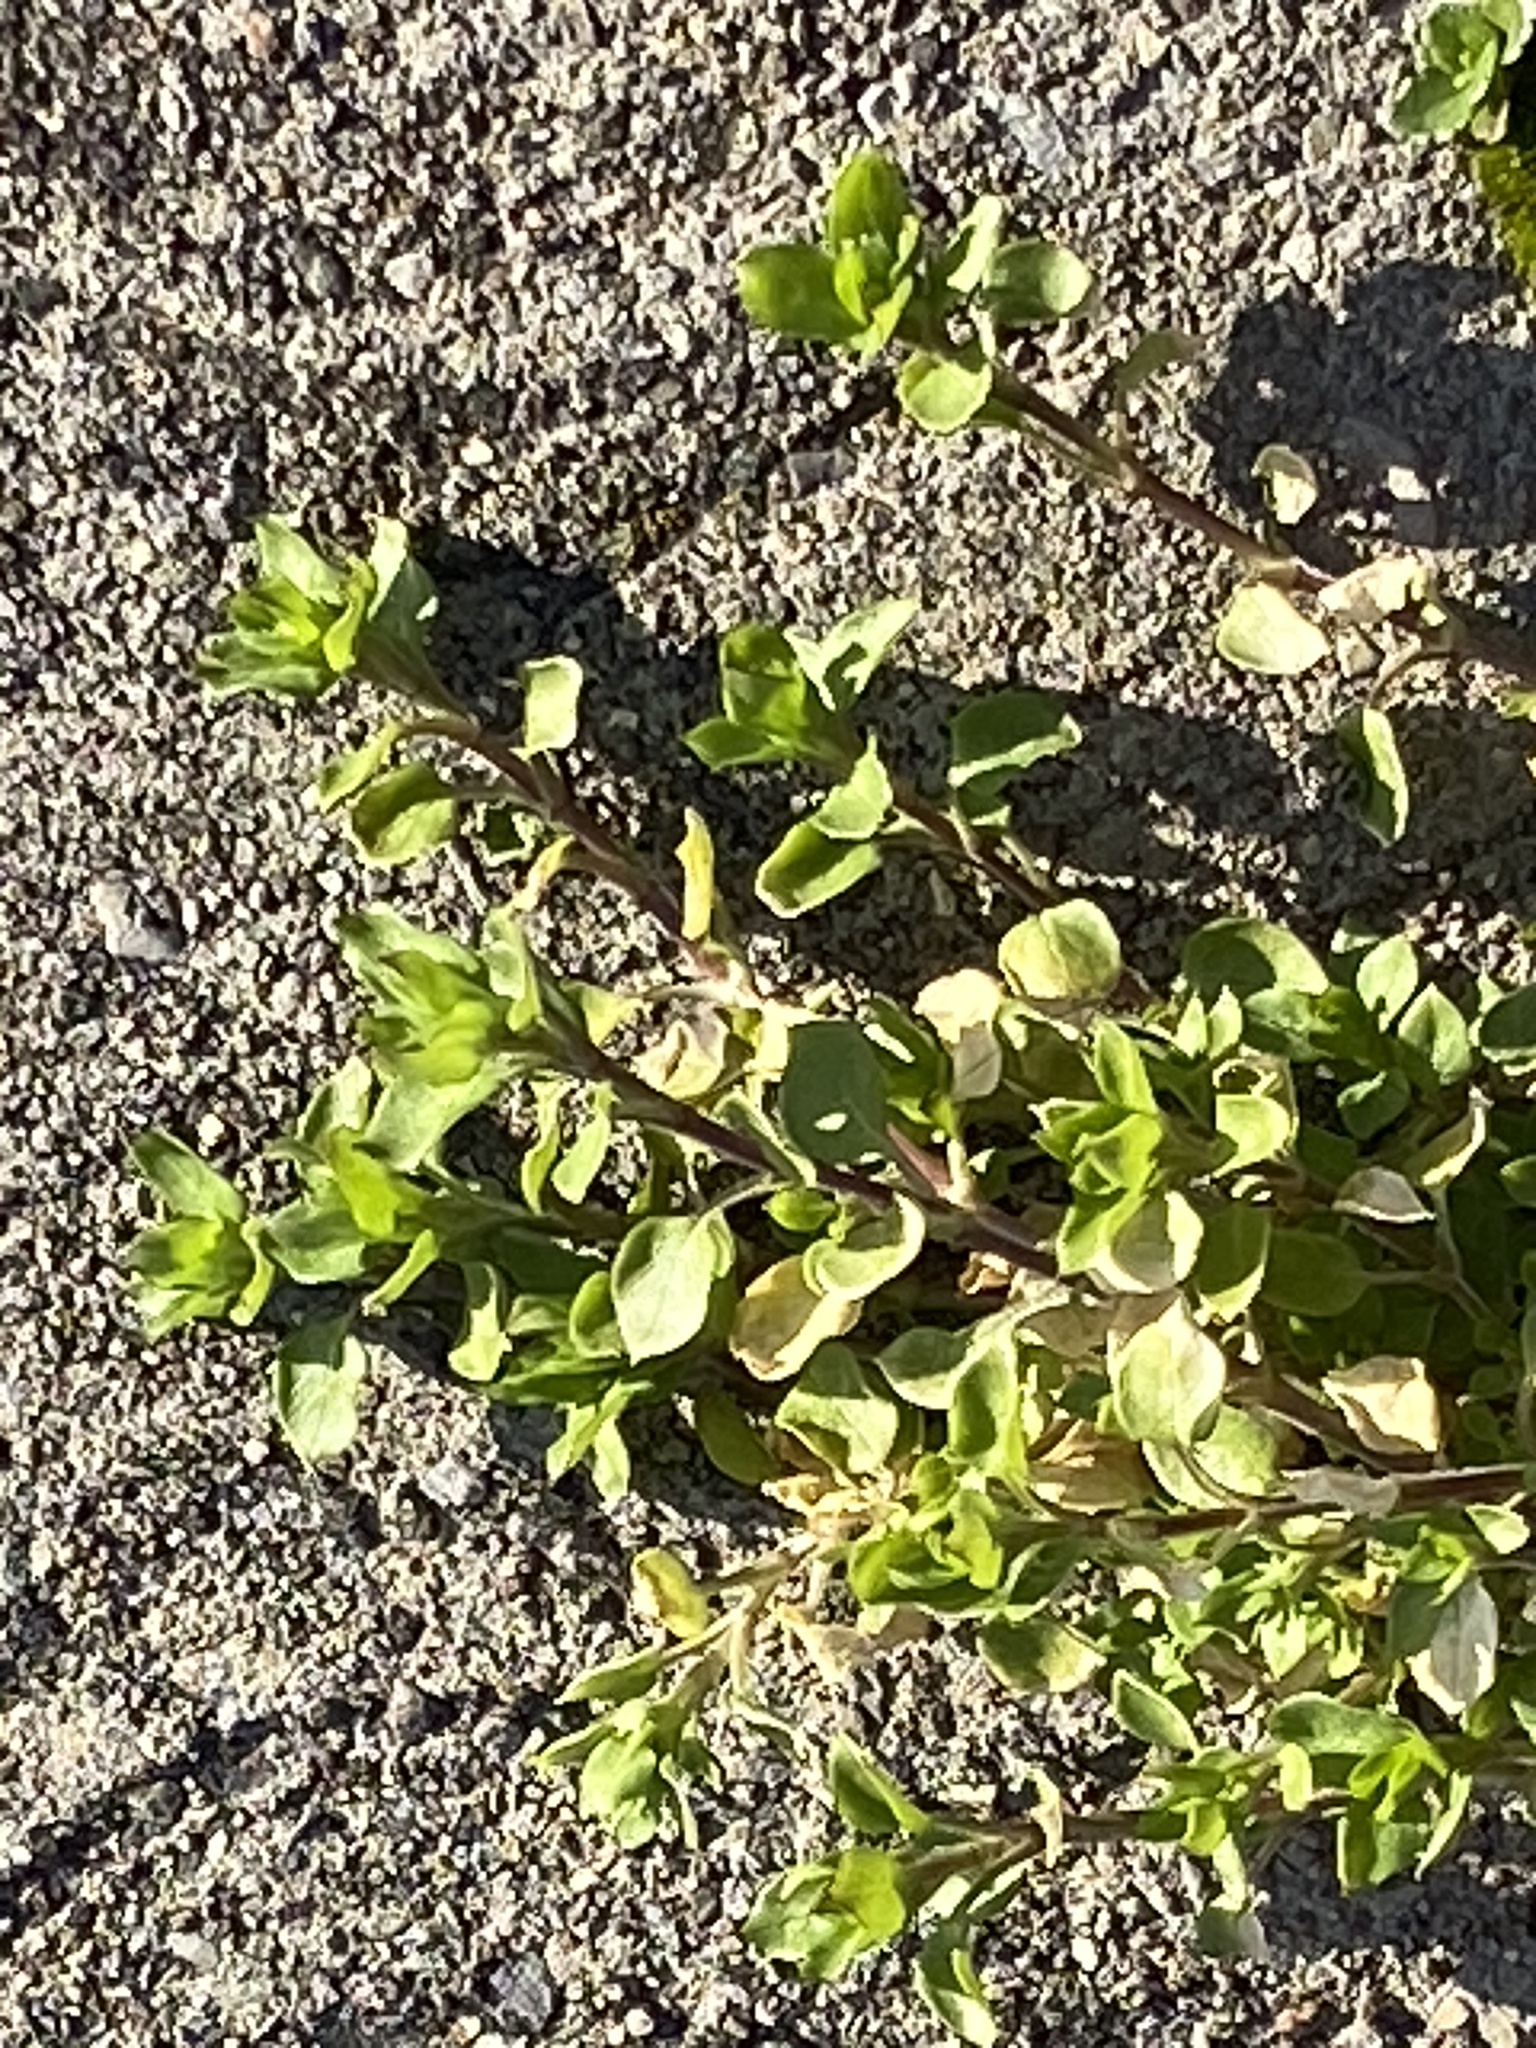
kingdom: Plantae
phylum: Tracheophyta
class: Magnoliopsida
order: Caryophyllales
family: Caryophyllaceae
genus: Stellaria
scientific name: Stellaria media
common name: Common chickweed
